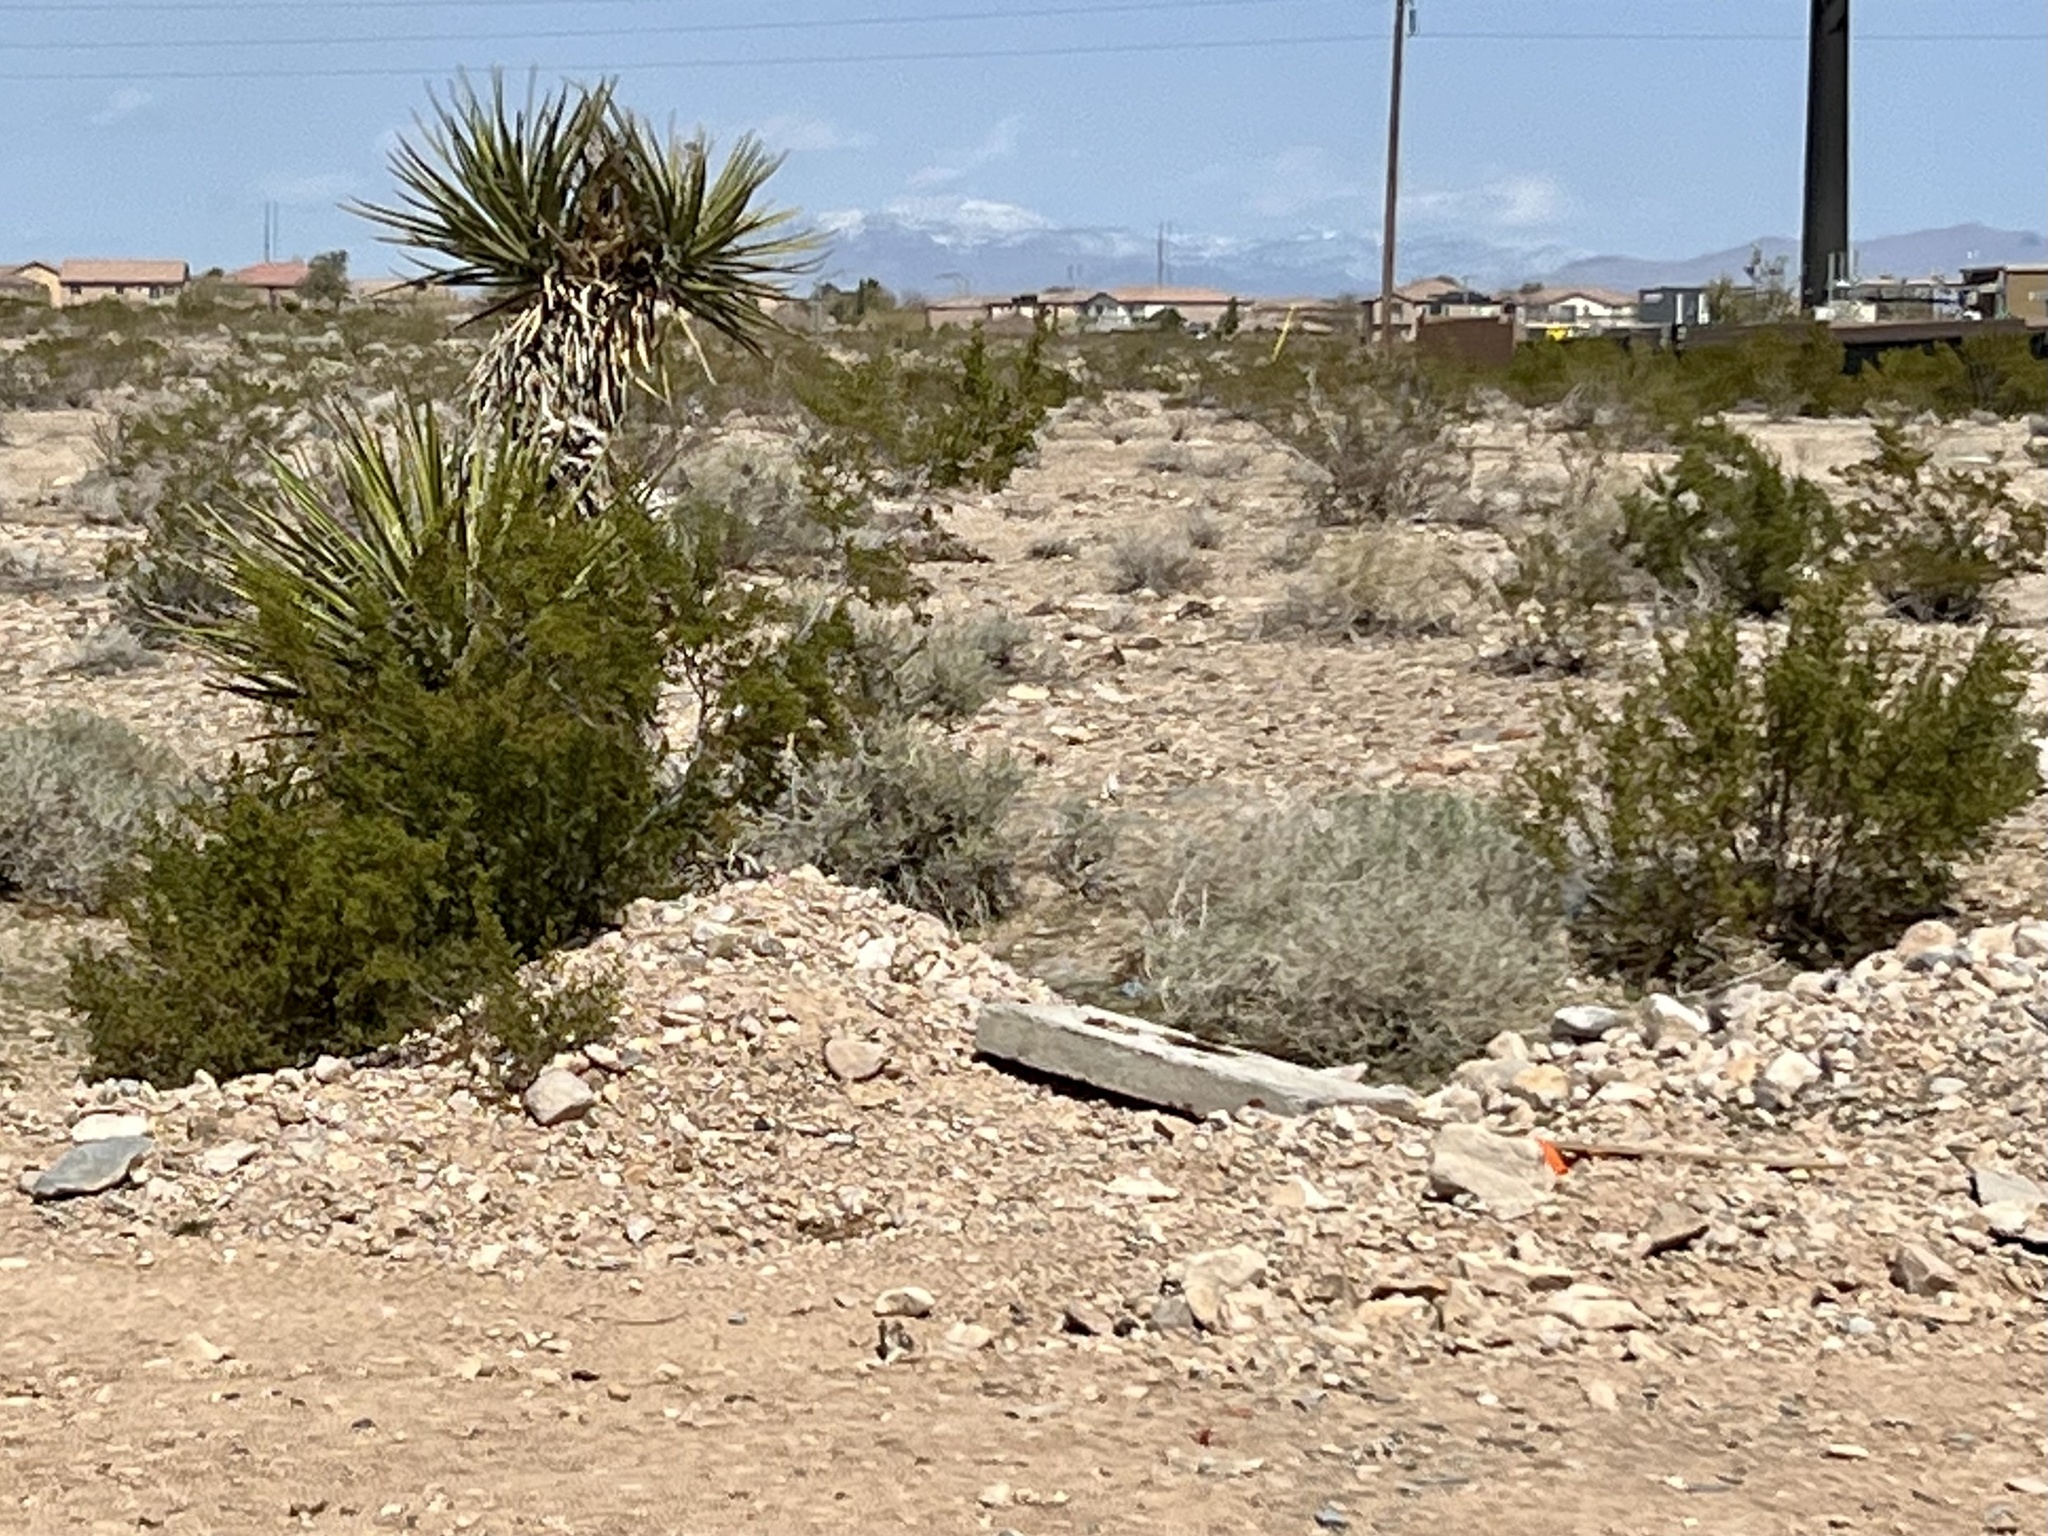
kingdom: Plantae
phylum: Tracheophyta
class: Magnoliopsida
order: Zygophyllales
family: Zygophyllaceae
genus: Larrea
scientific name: Larrea tridentata
